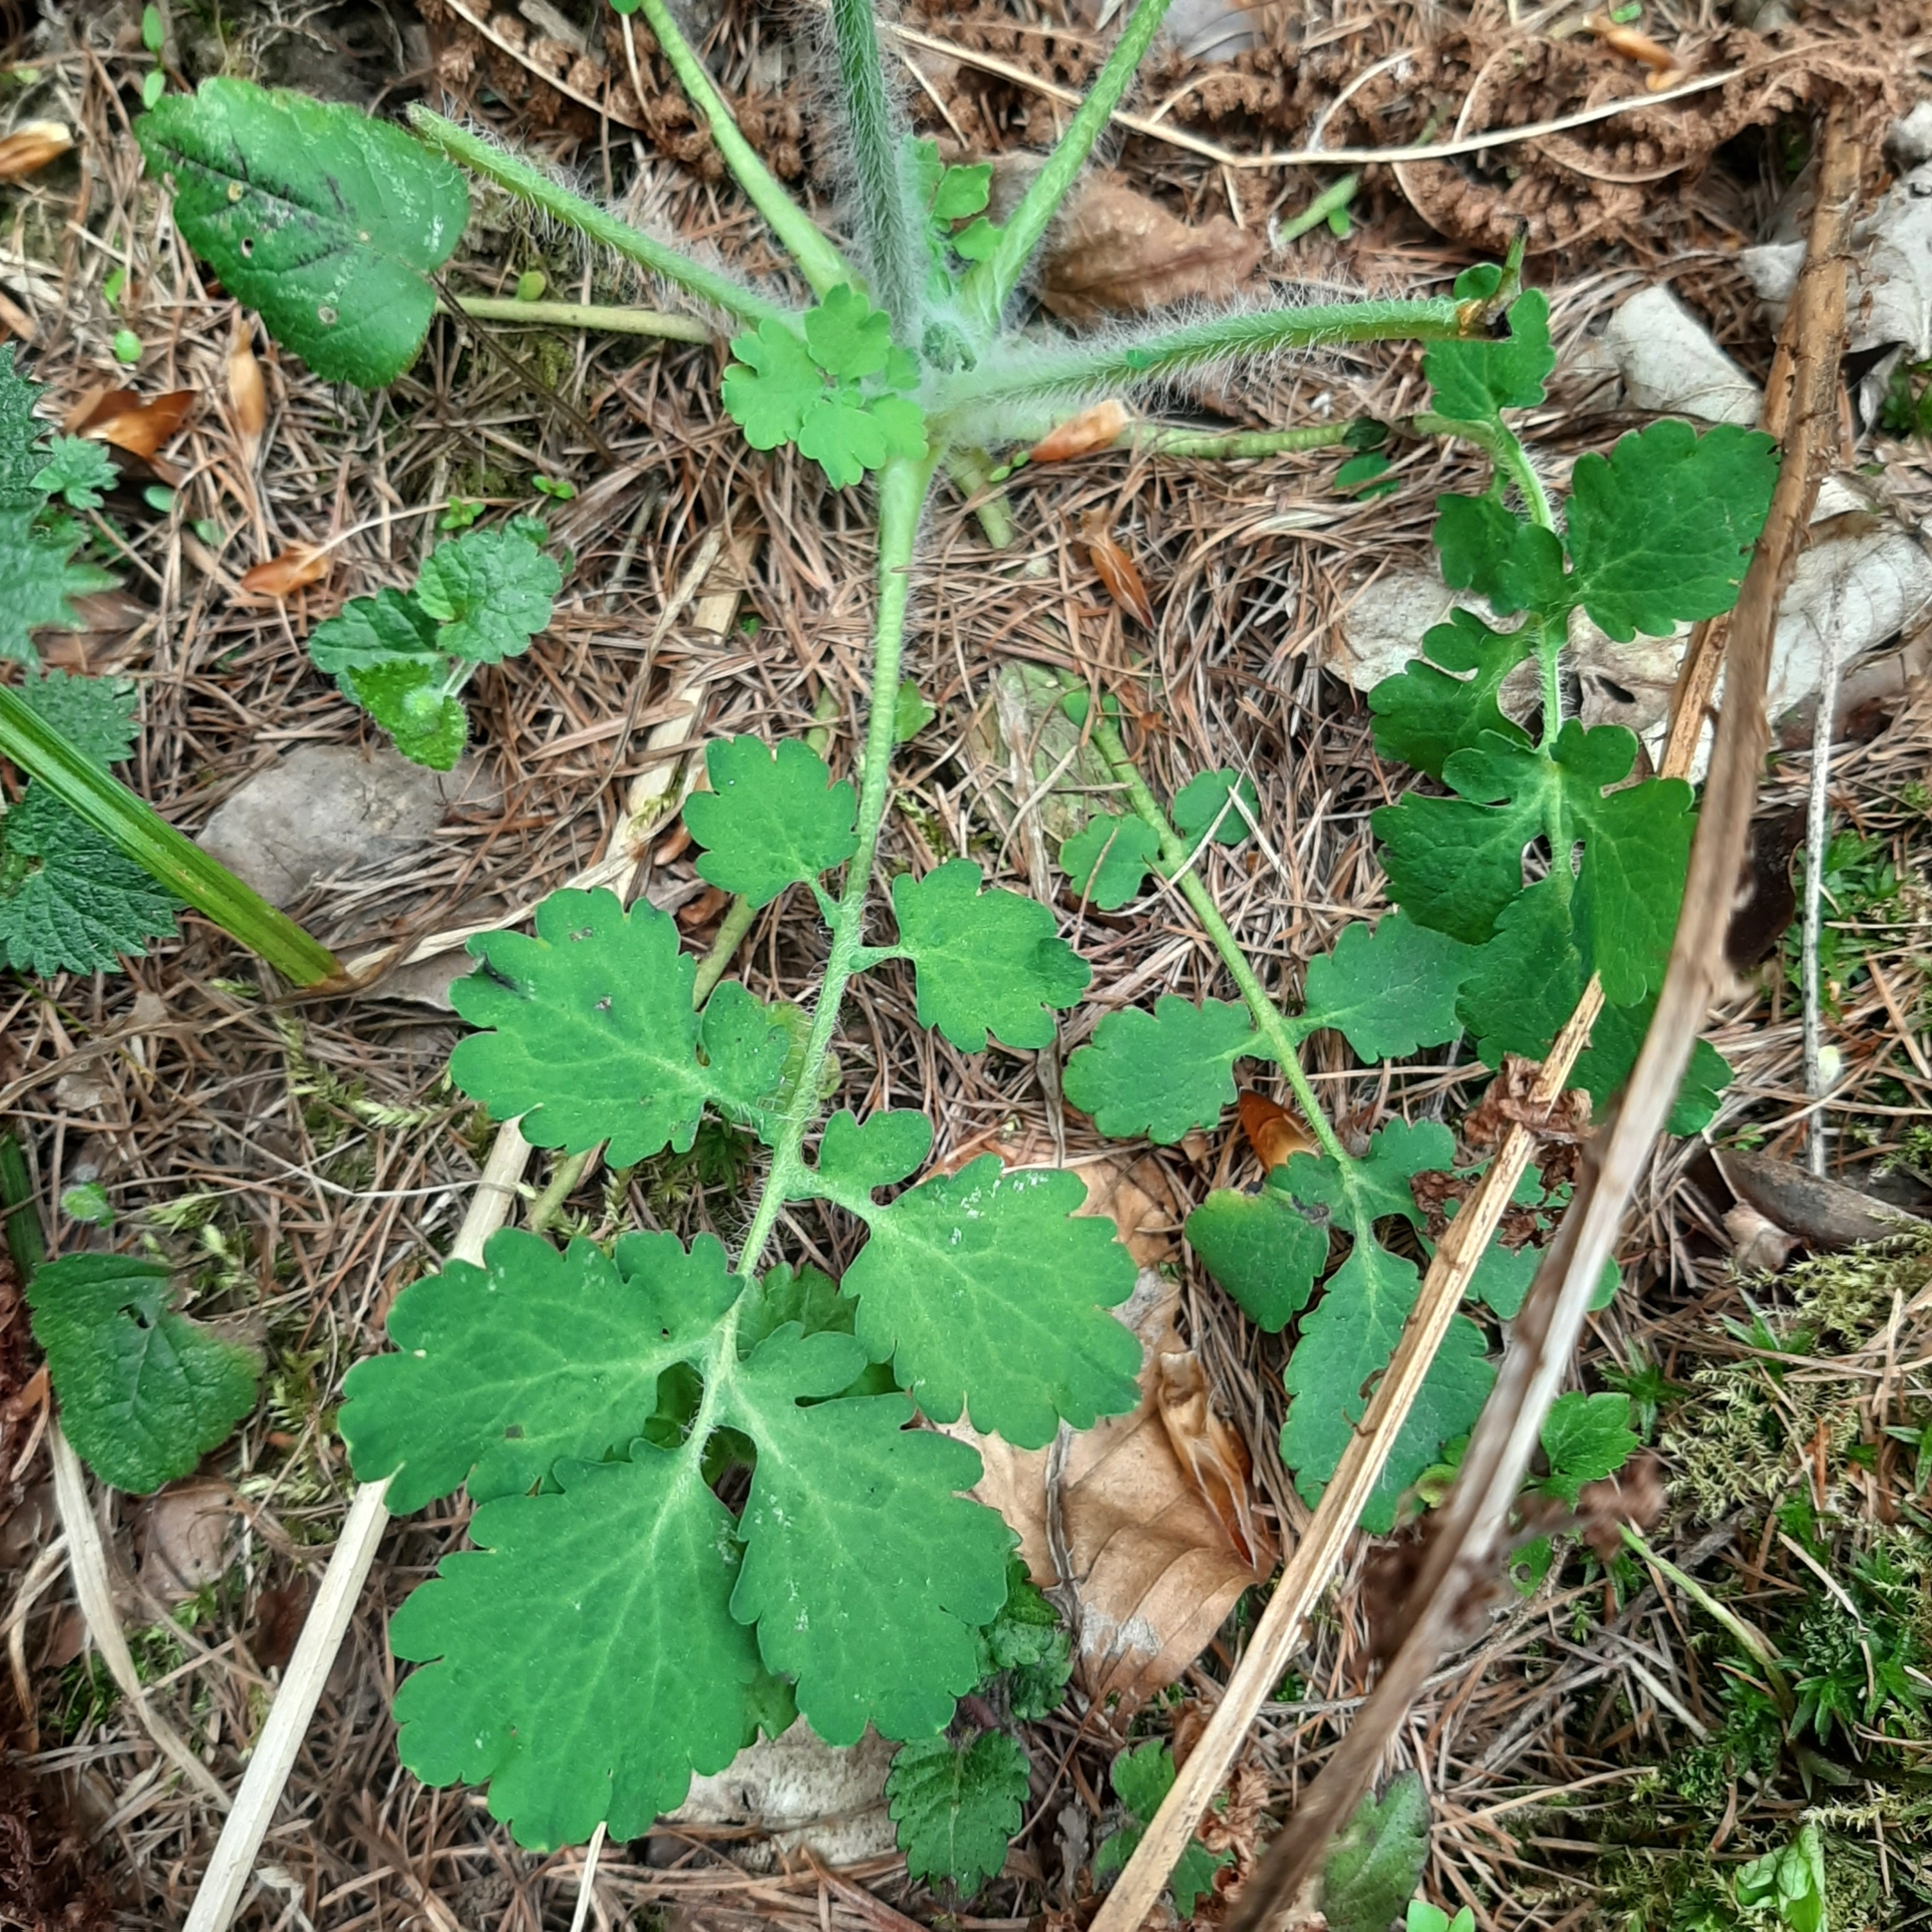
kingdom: Plantae
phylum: Tracheophyta
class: Magnoliopsida
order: Ranunculales
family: Papaveraceae
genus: Chelidonium
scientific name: Chelidonium majus
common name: Greater celandine
